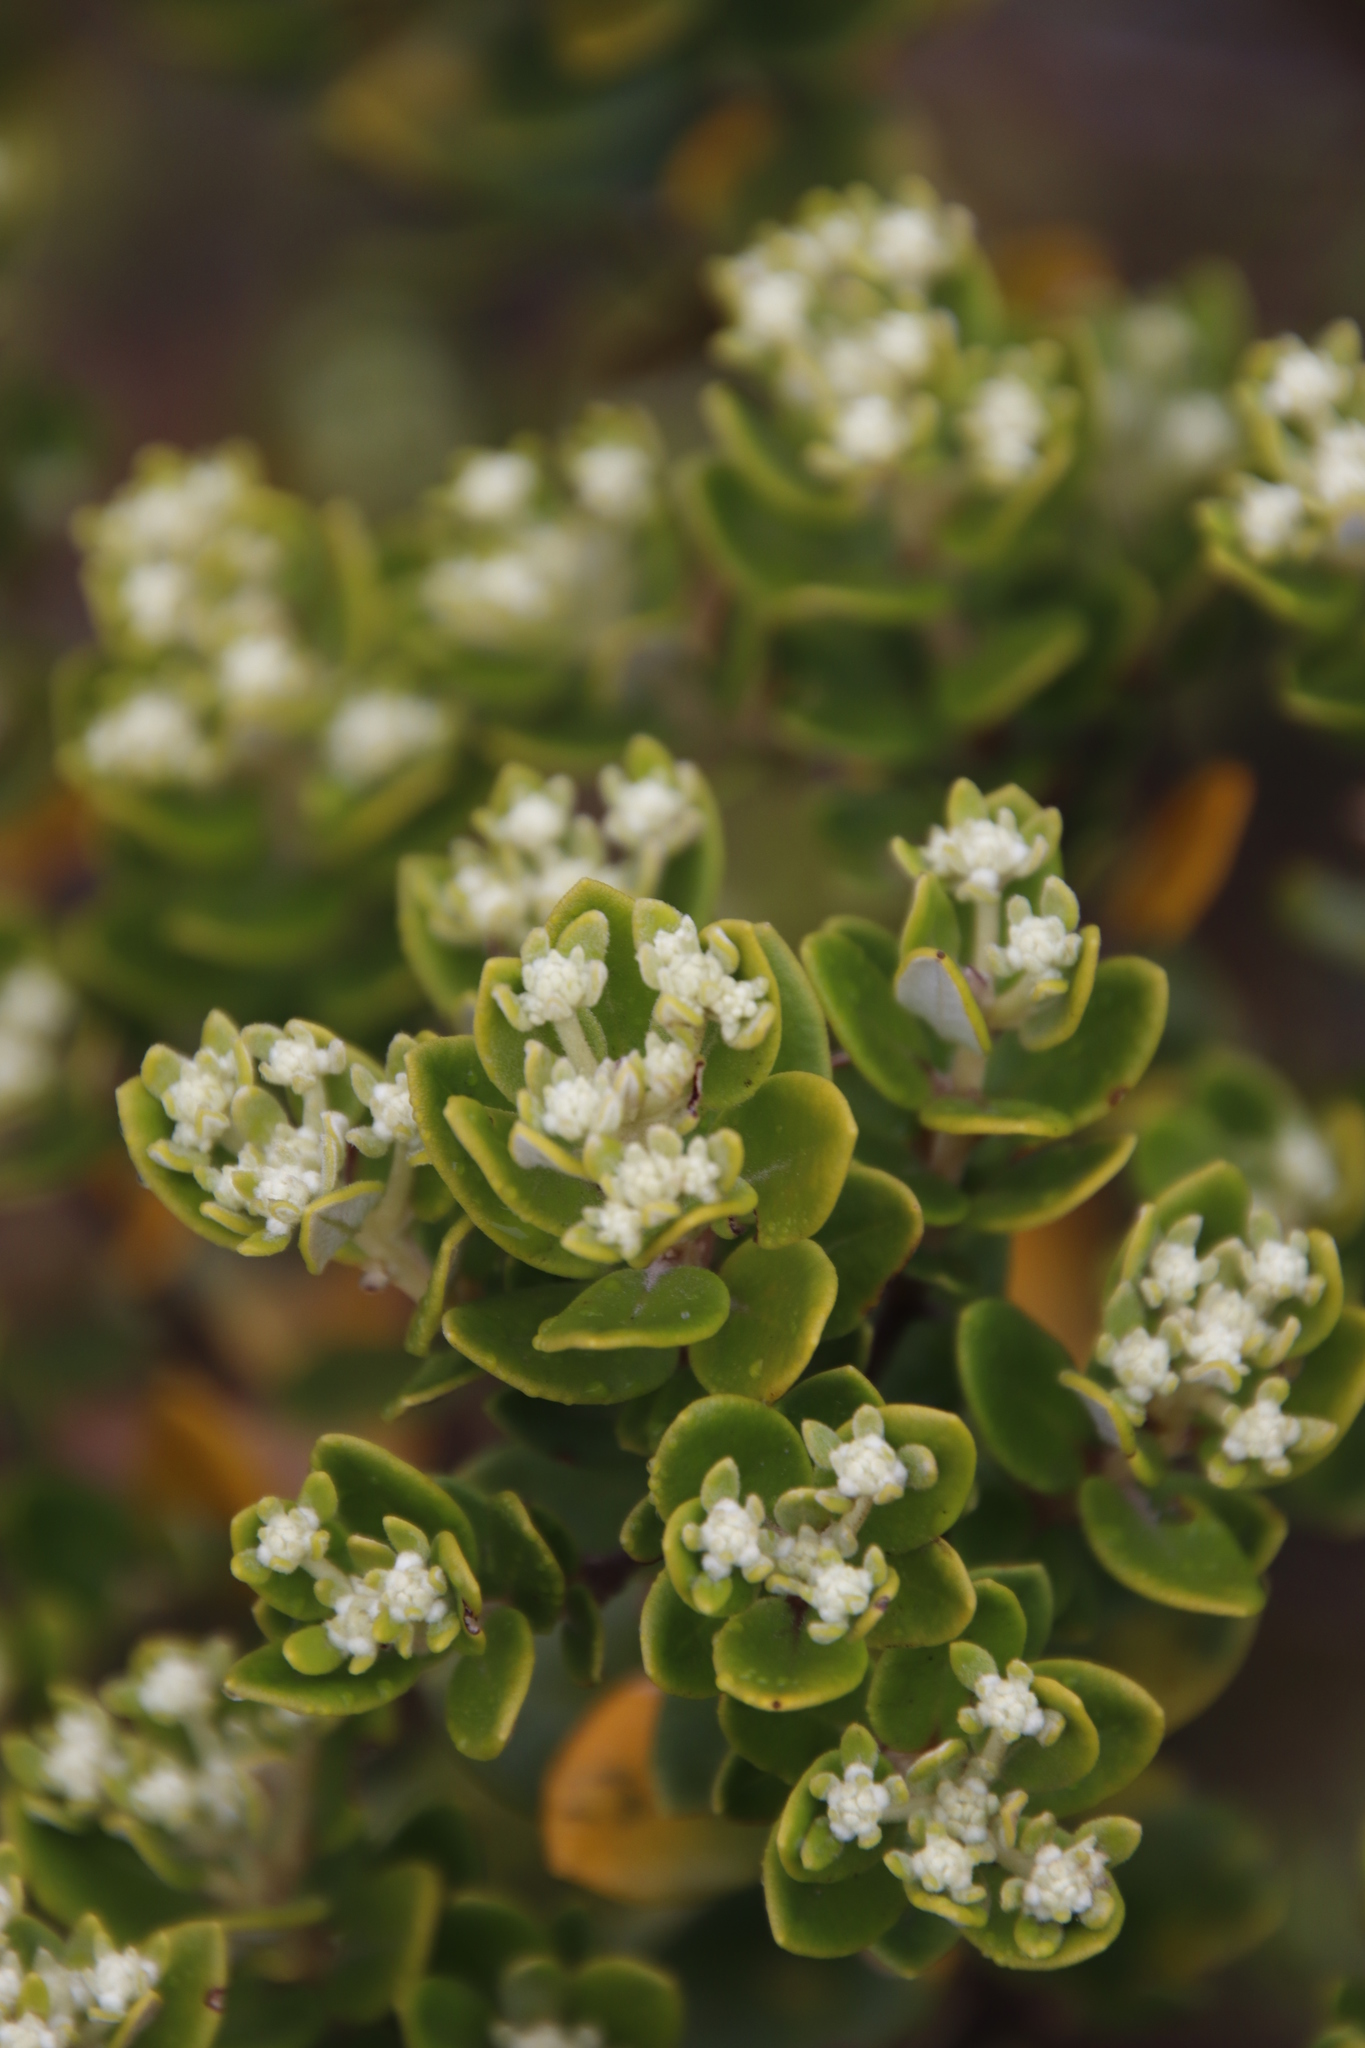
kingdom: Plantae
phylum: Tracheophyta
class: Magnoliopsida
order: Rosales
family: Rhamnaceae
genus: Phylica
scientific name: Phylica buxifolia
